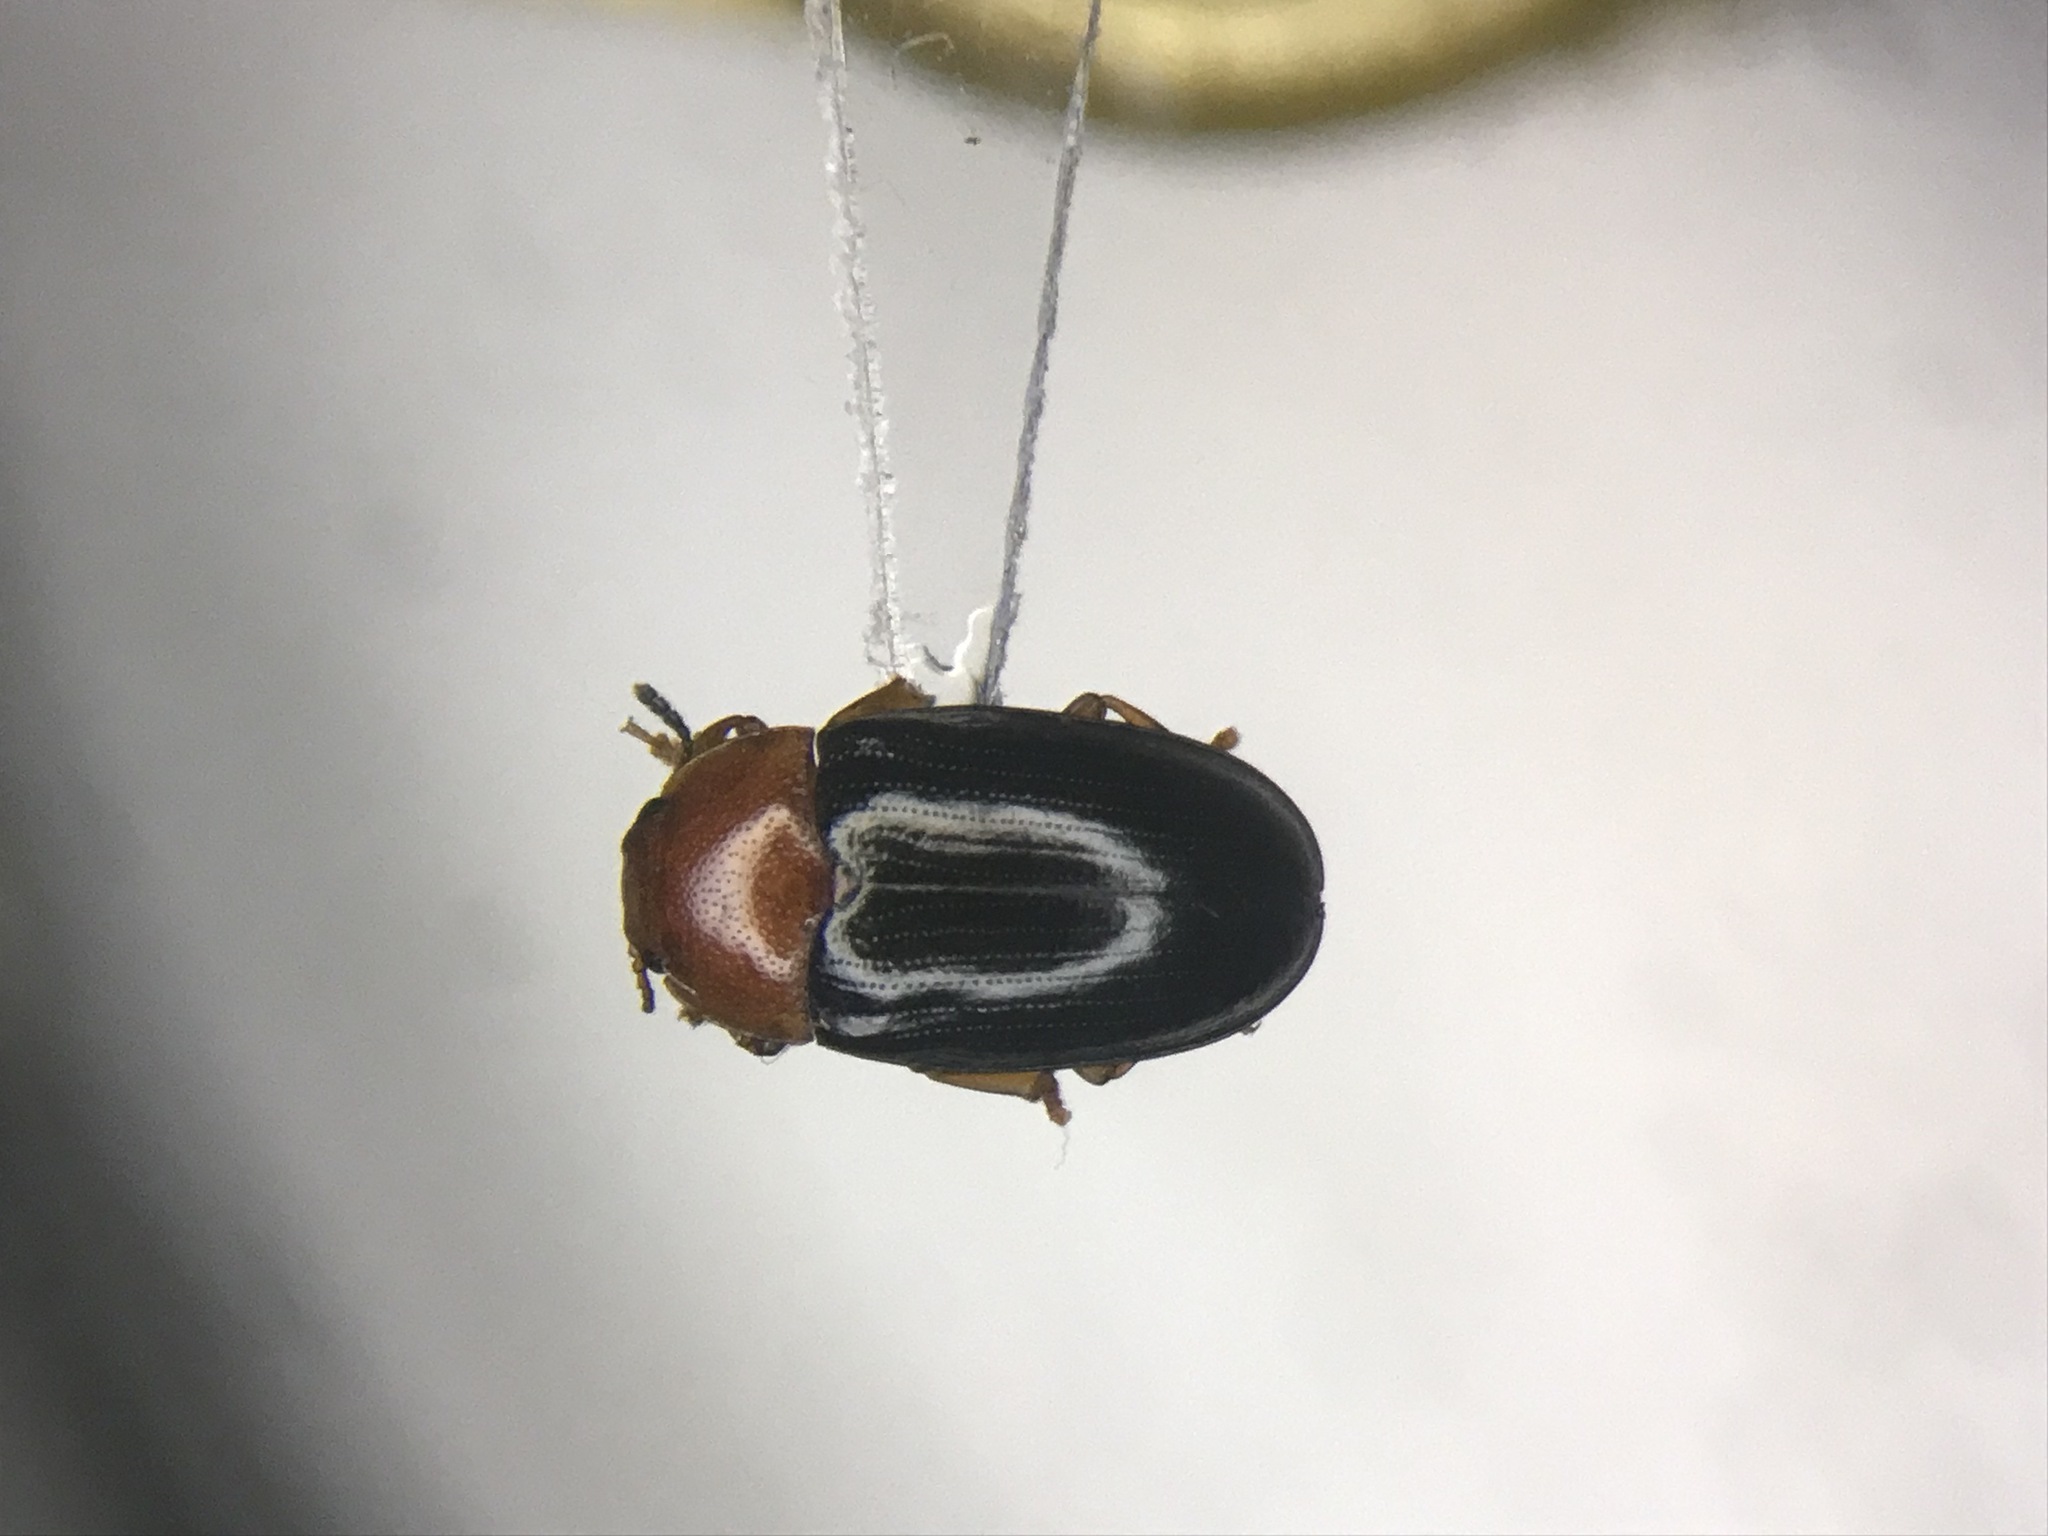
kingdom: Animalia
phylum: Arthropoda
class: Insecta
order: Coleoptera
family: Erotylidae
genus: Triplax
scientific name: Triplax frosti
